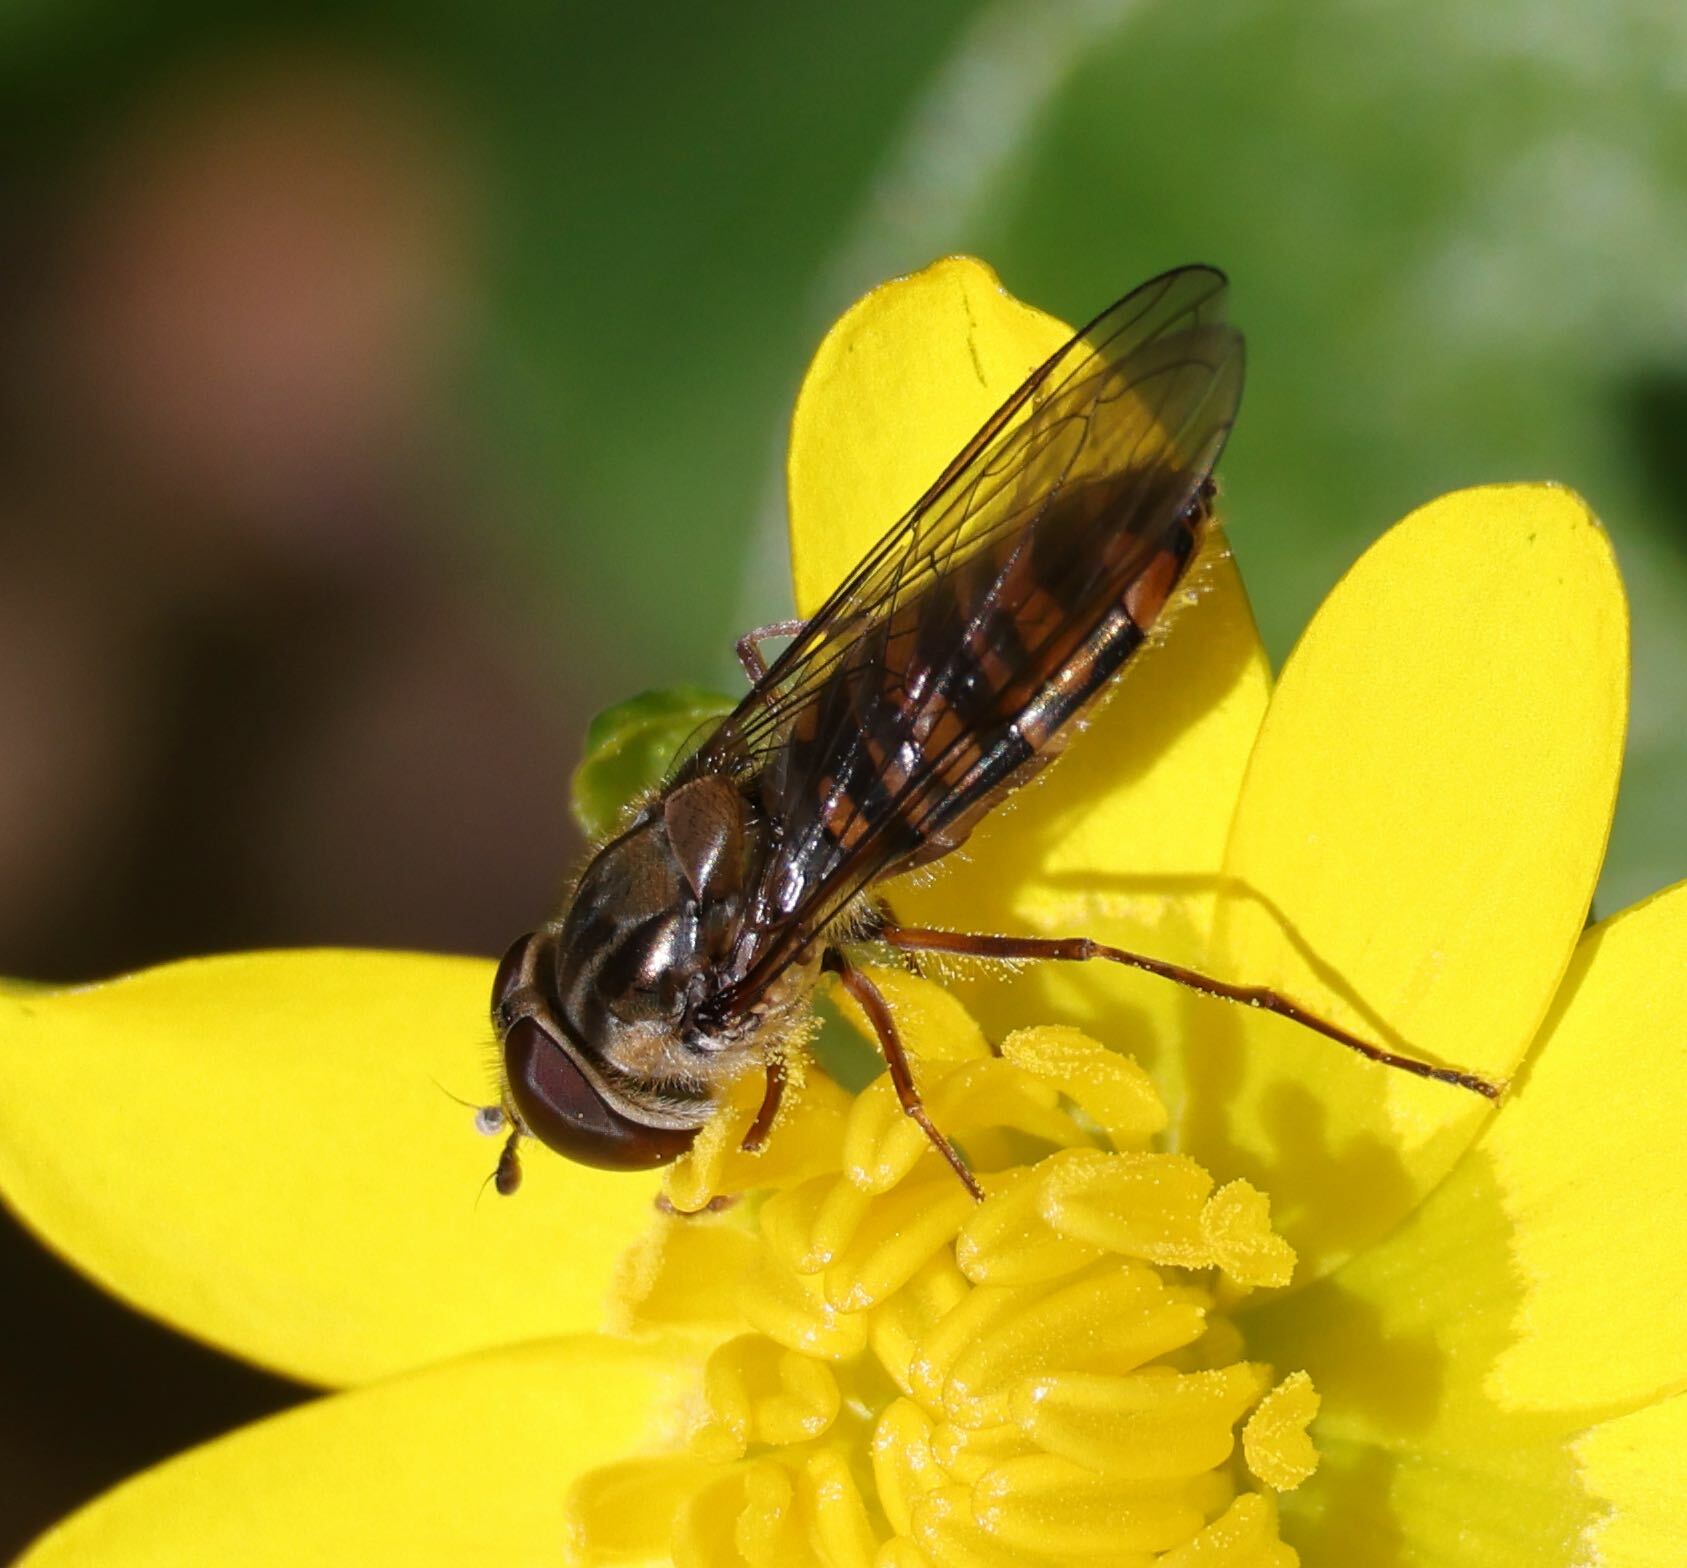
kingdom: Animalia
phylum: Arthropoda
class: Insecta
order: Diptera
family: Syrphidae
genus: Episyrphus
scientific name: Episyrphus balteatus
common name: Marmalade hoverfly
